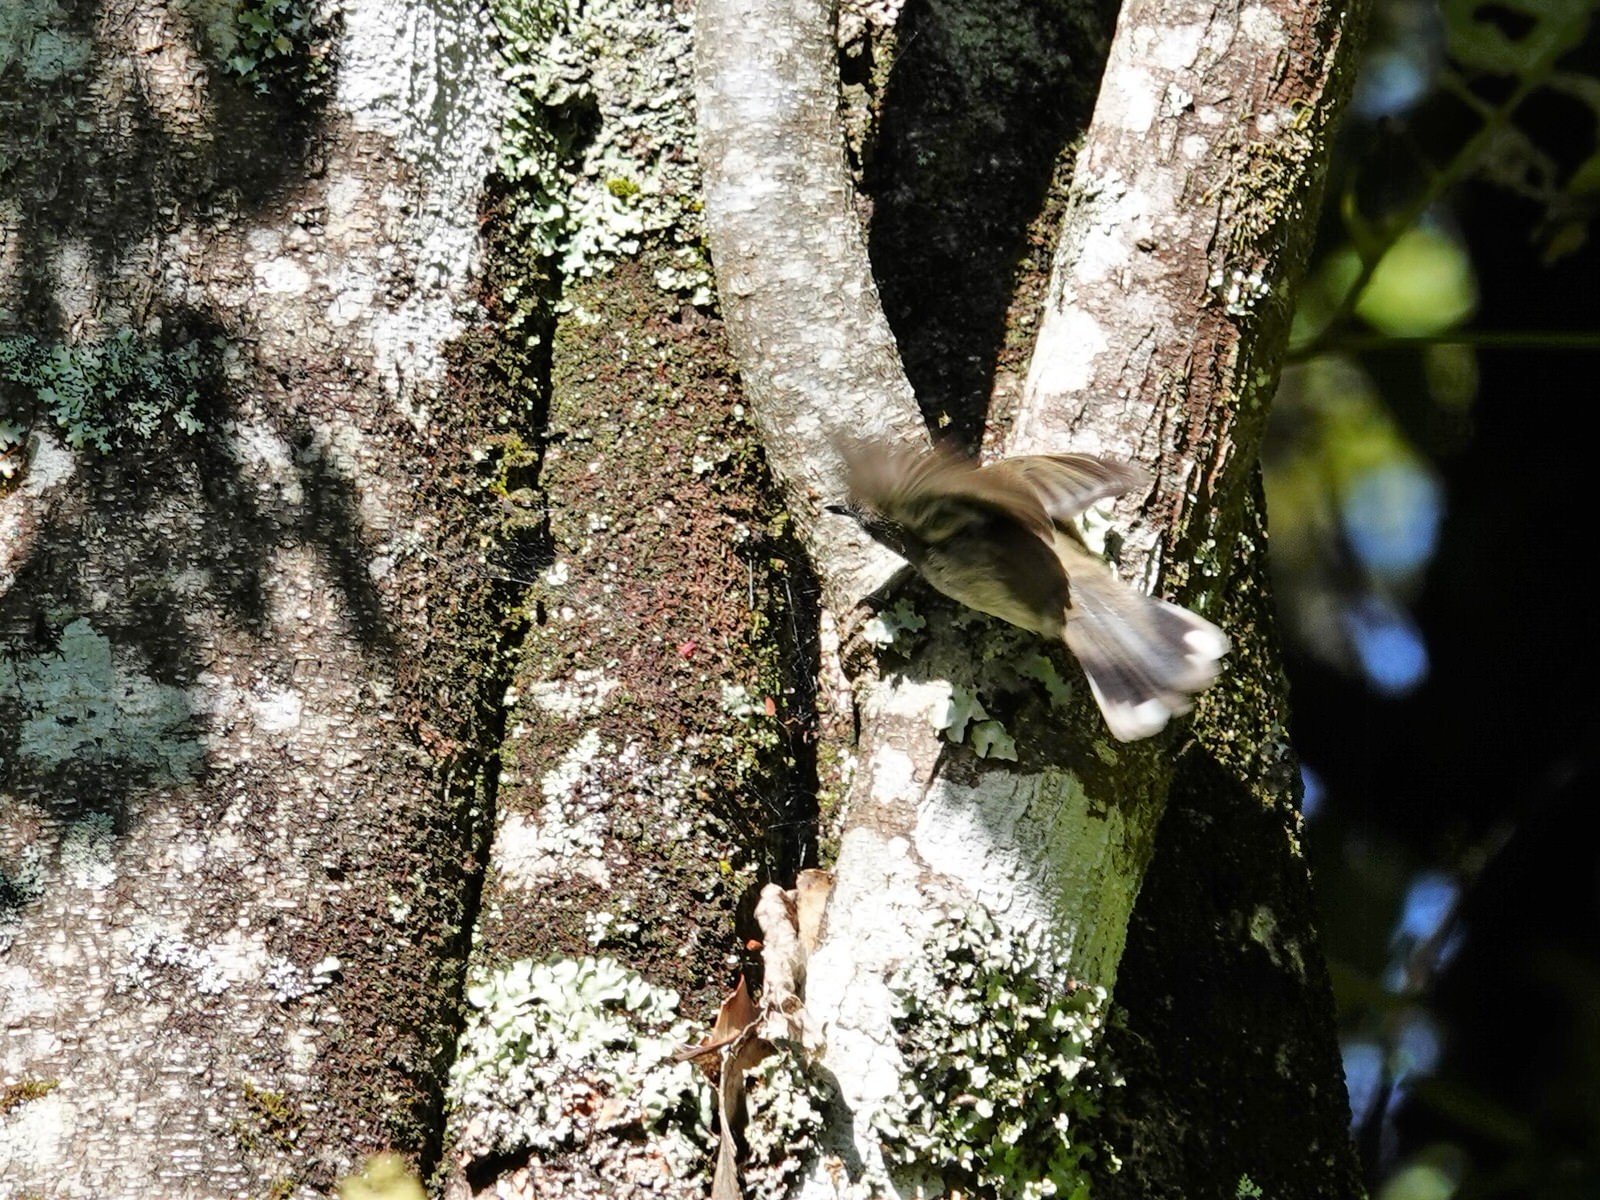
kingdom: Animalia
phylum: Chordata
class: Aves
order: Passeriformes
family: Acanthizidae
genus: Gerygone
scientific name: Gerygone igata
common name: Grey gerygone
